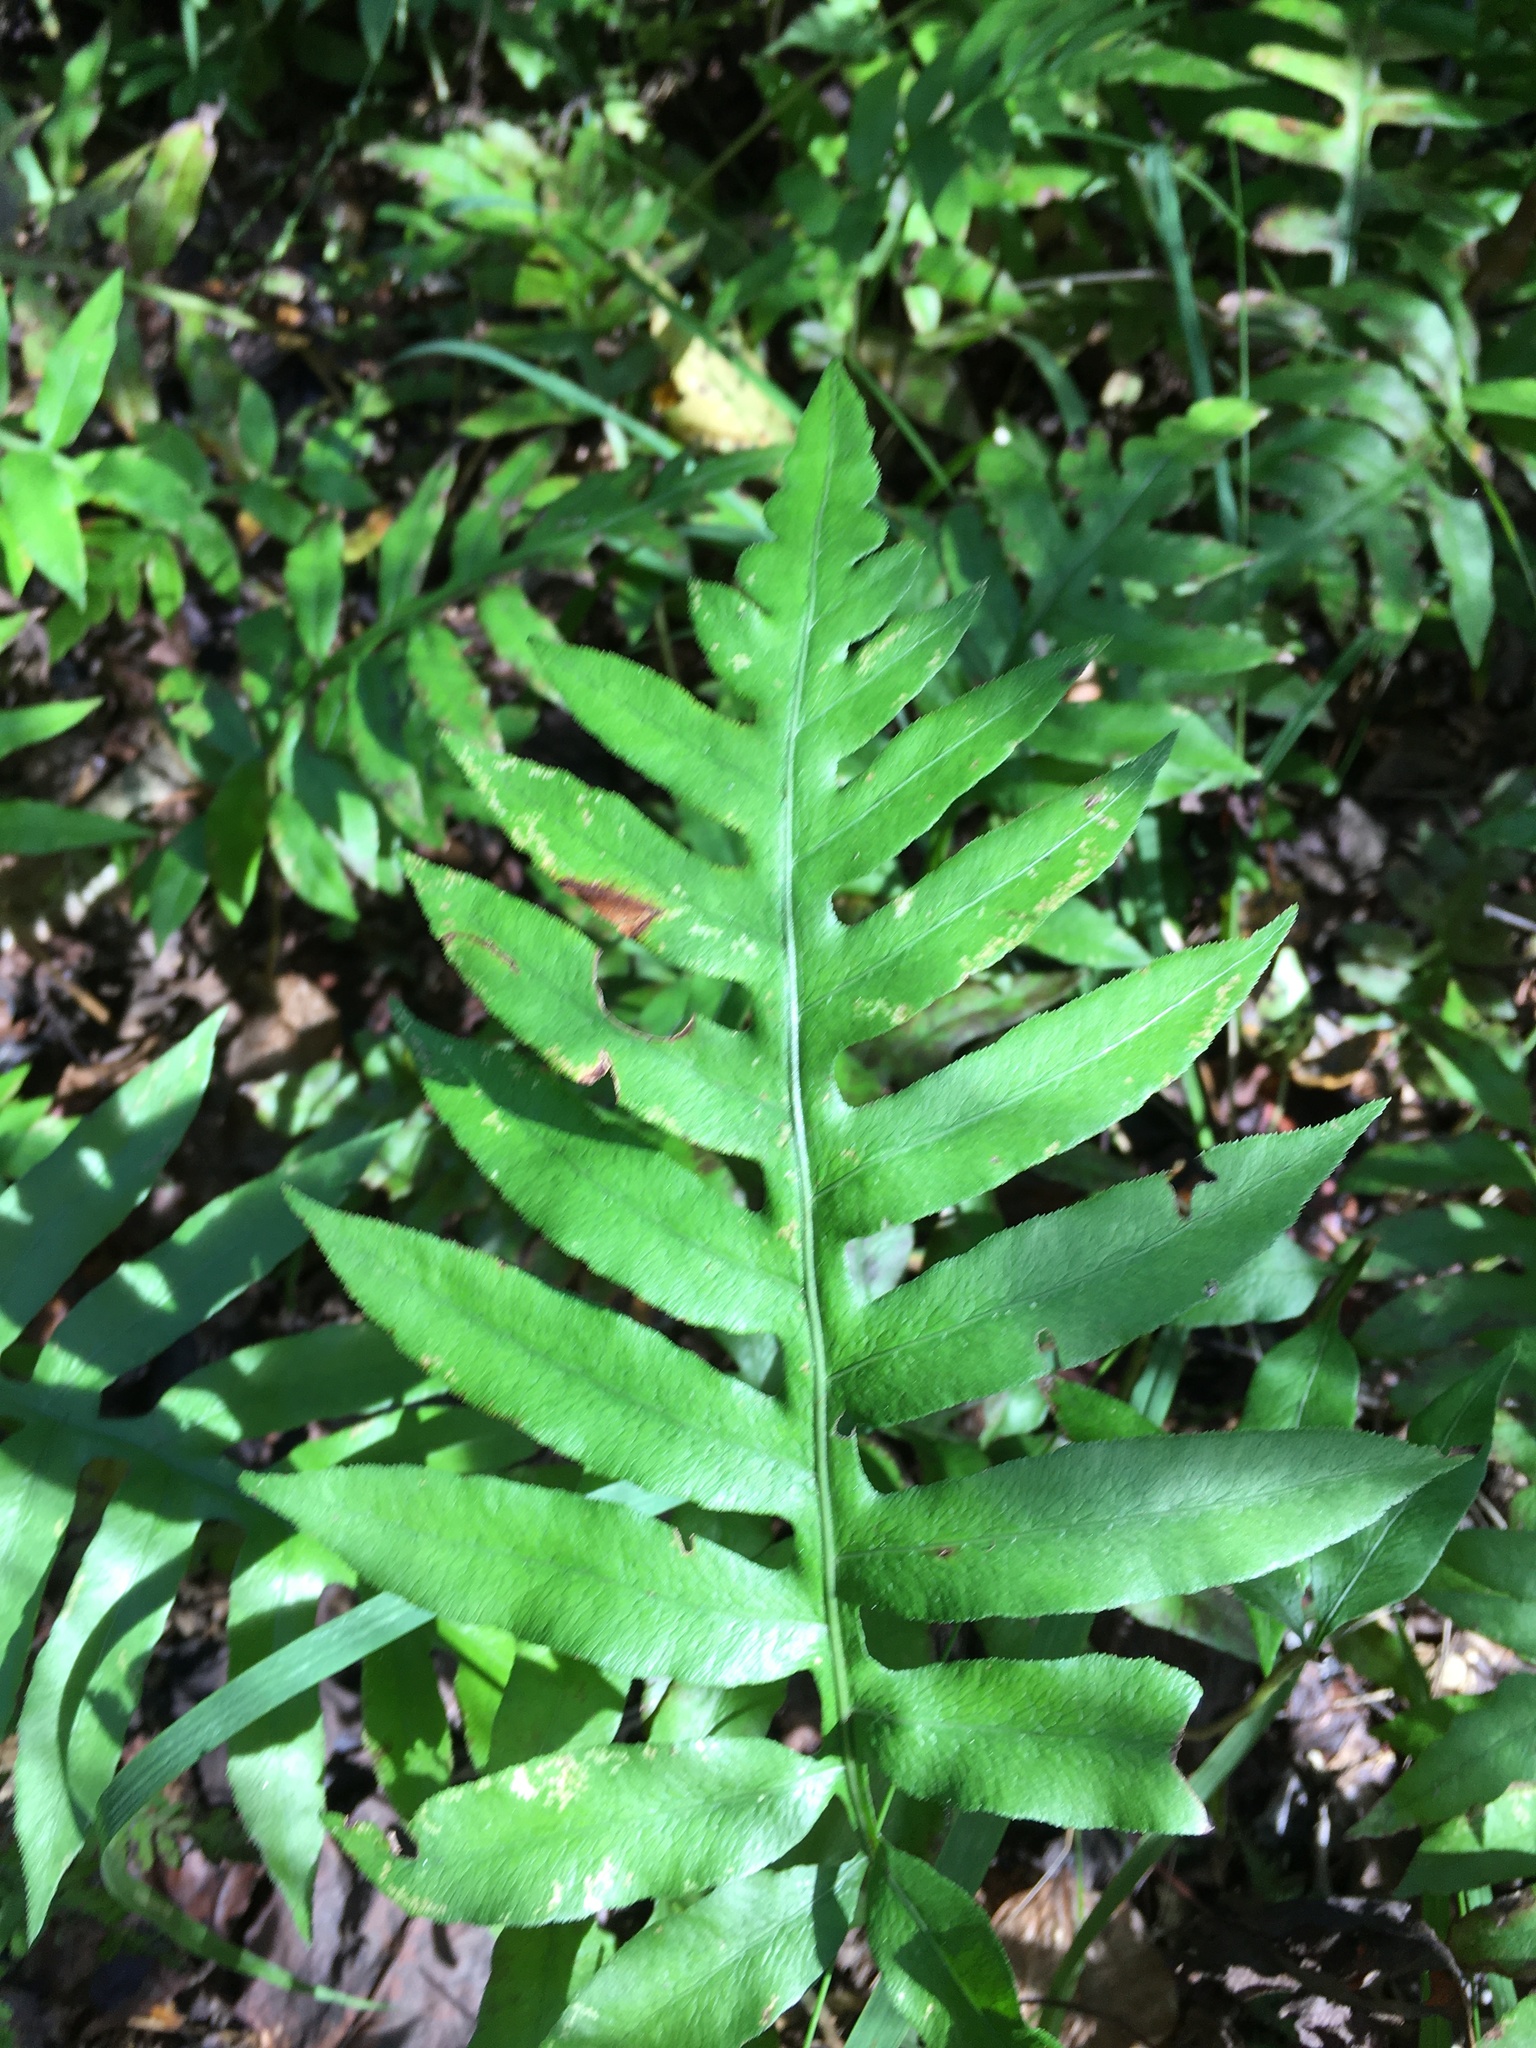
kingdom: Plantae
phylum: Tracheophyta
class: Polypodiopsida
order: Polypodiales
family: Blechnaceae
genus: Lorinseria
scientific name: Lorinseria areolata
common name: Dwarf chain fern
